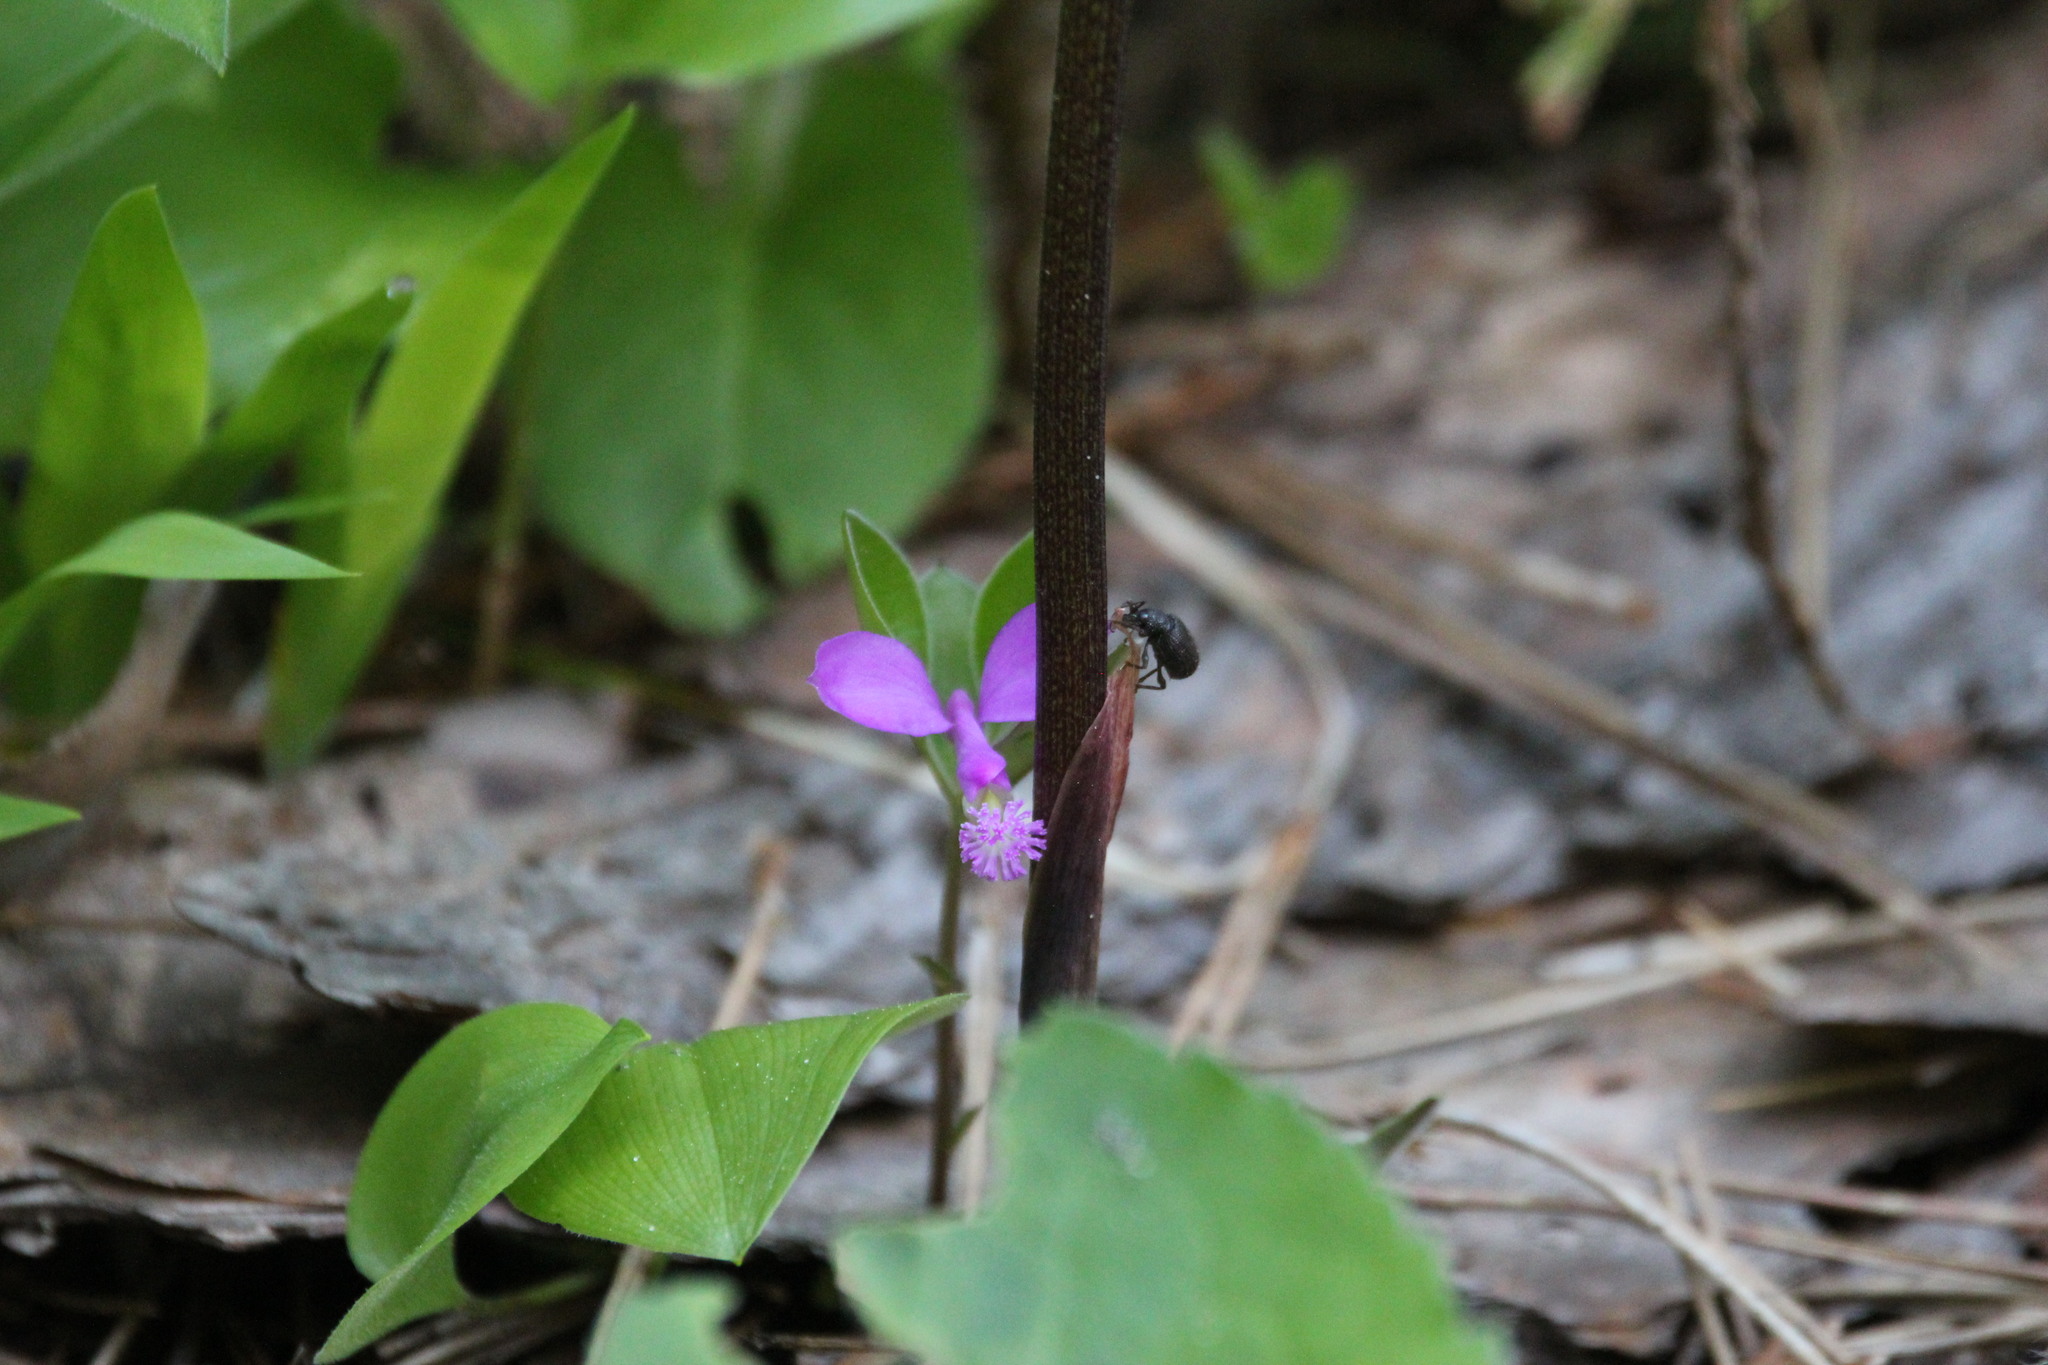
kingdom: Plantae
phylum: Tracheophyta
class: Magnoliopsida
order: Fabales
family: Polygalaceae
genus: Polygaloides
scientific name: Polygaloides paucifolia
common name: Bird-on-the-wing
